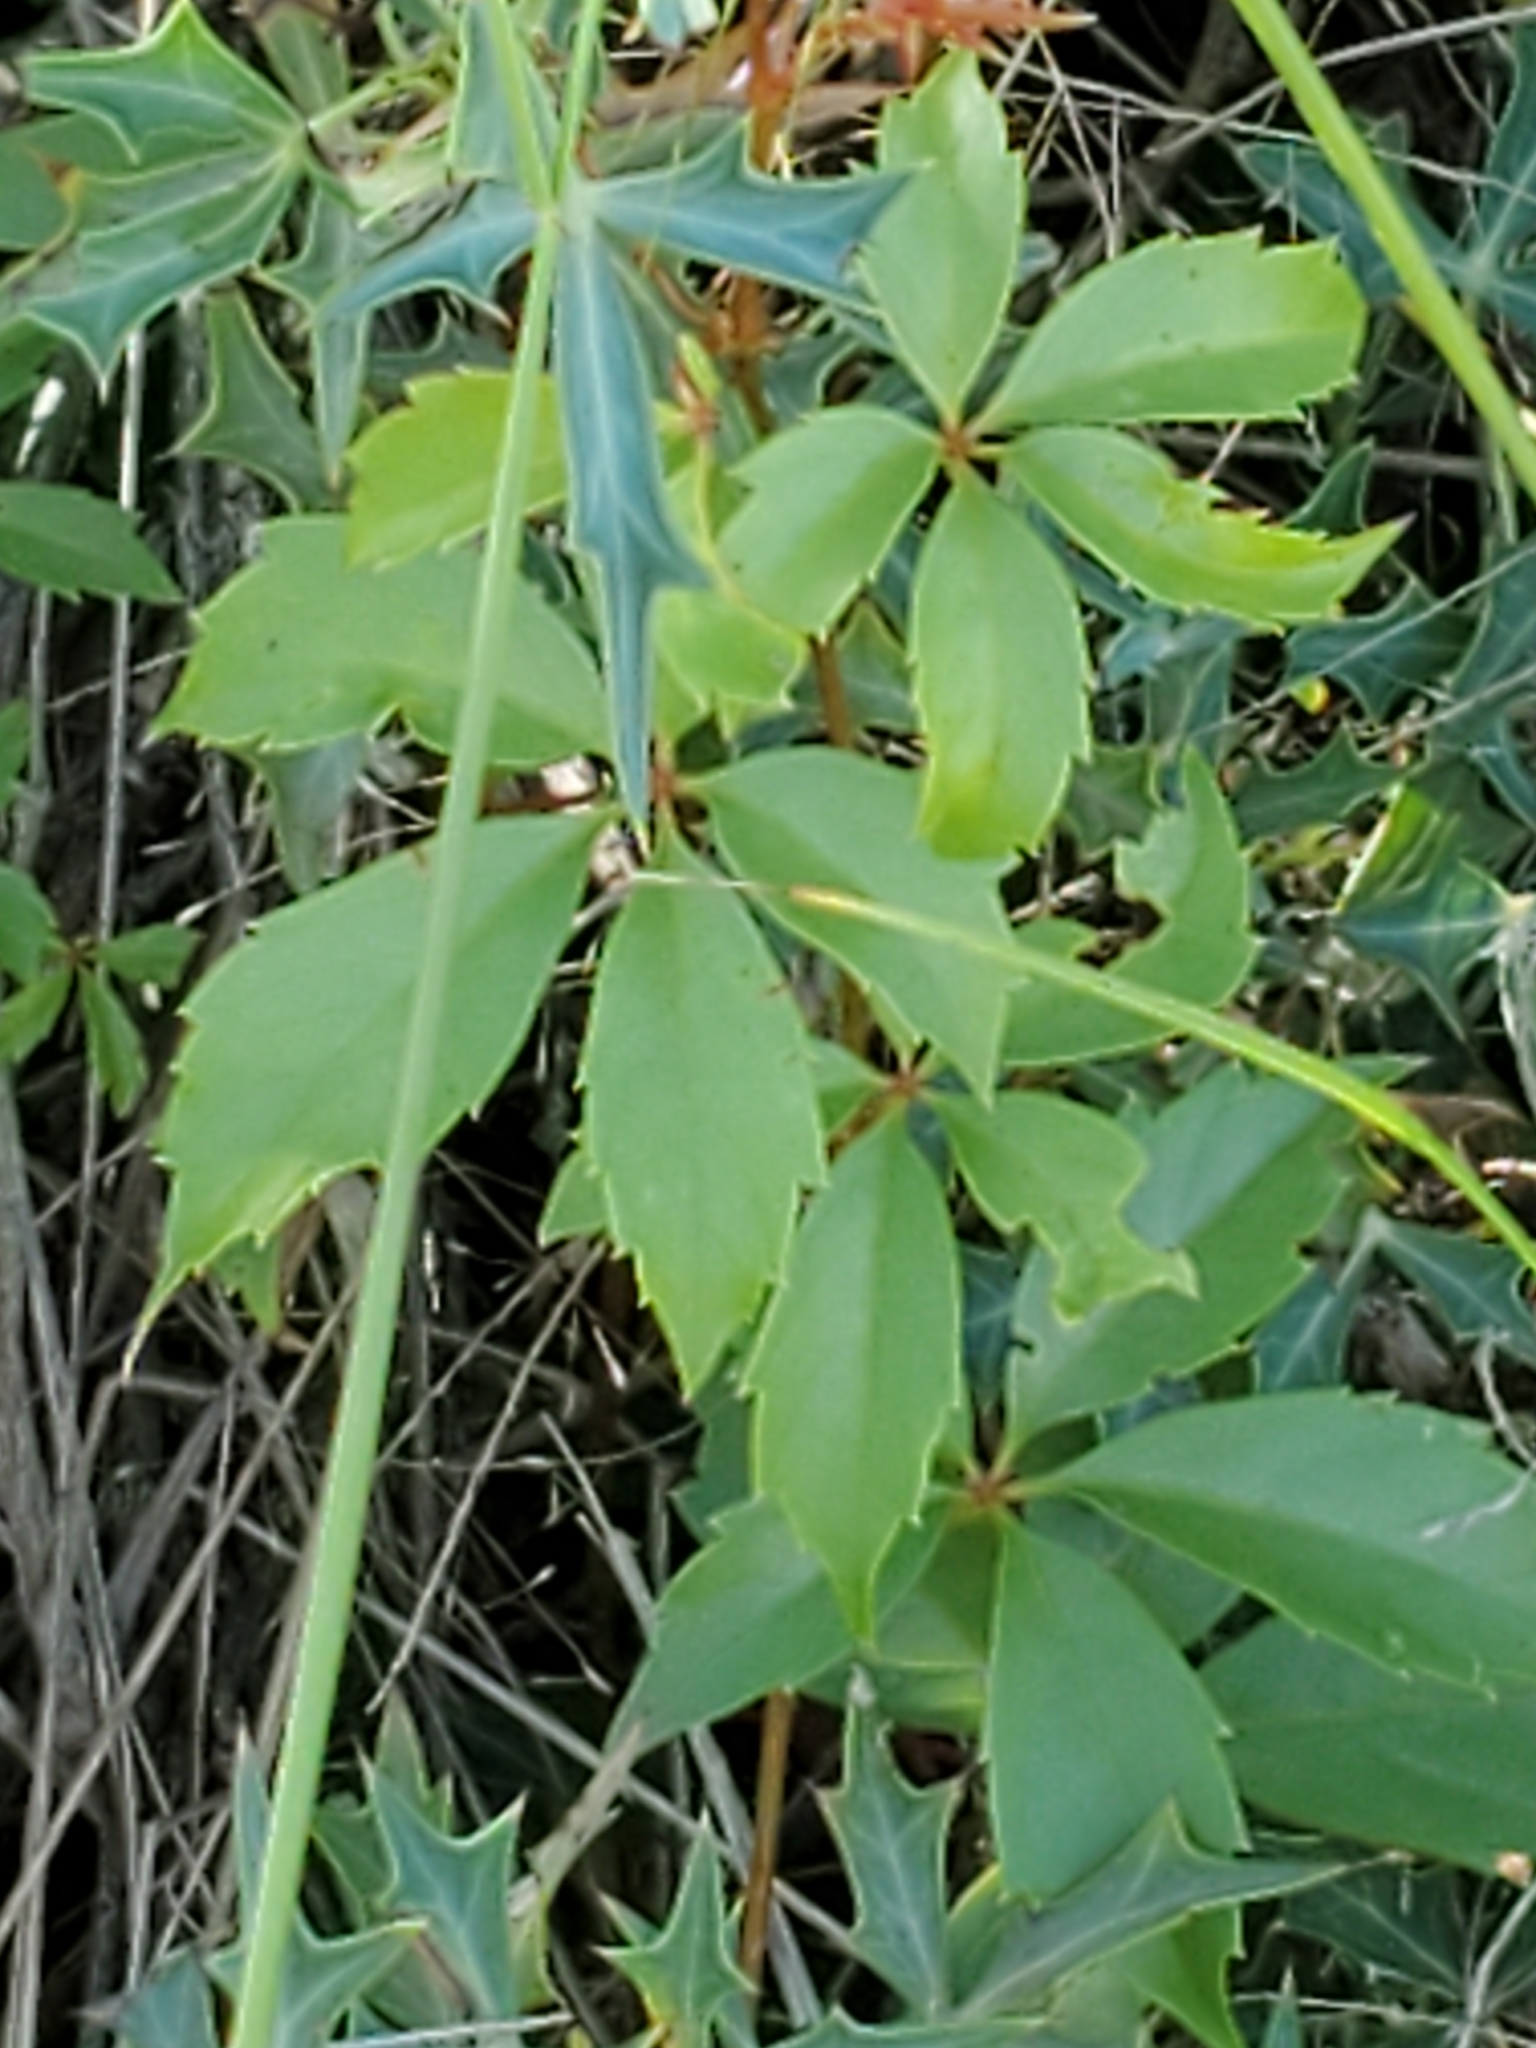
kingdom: Plantae
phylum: Tracheophyta
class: Magnoliopsida
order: Vitales
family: Vitaceae
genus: Parthenocissus
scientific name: Parthenocissus quinquefolia
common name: Virginia-creeper
